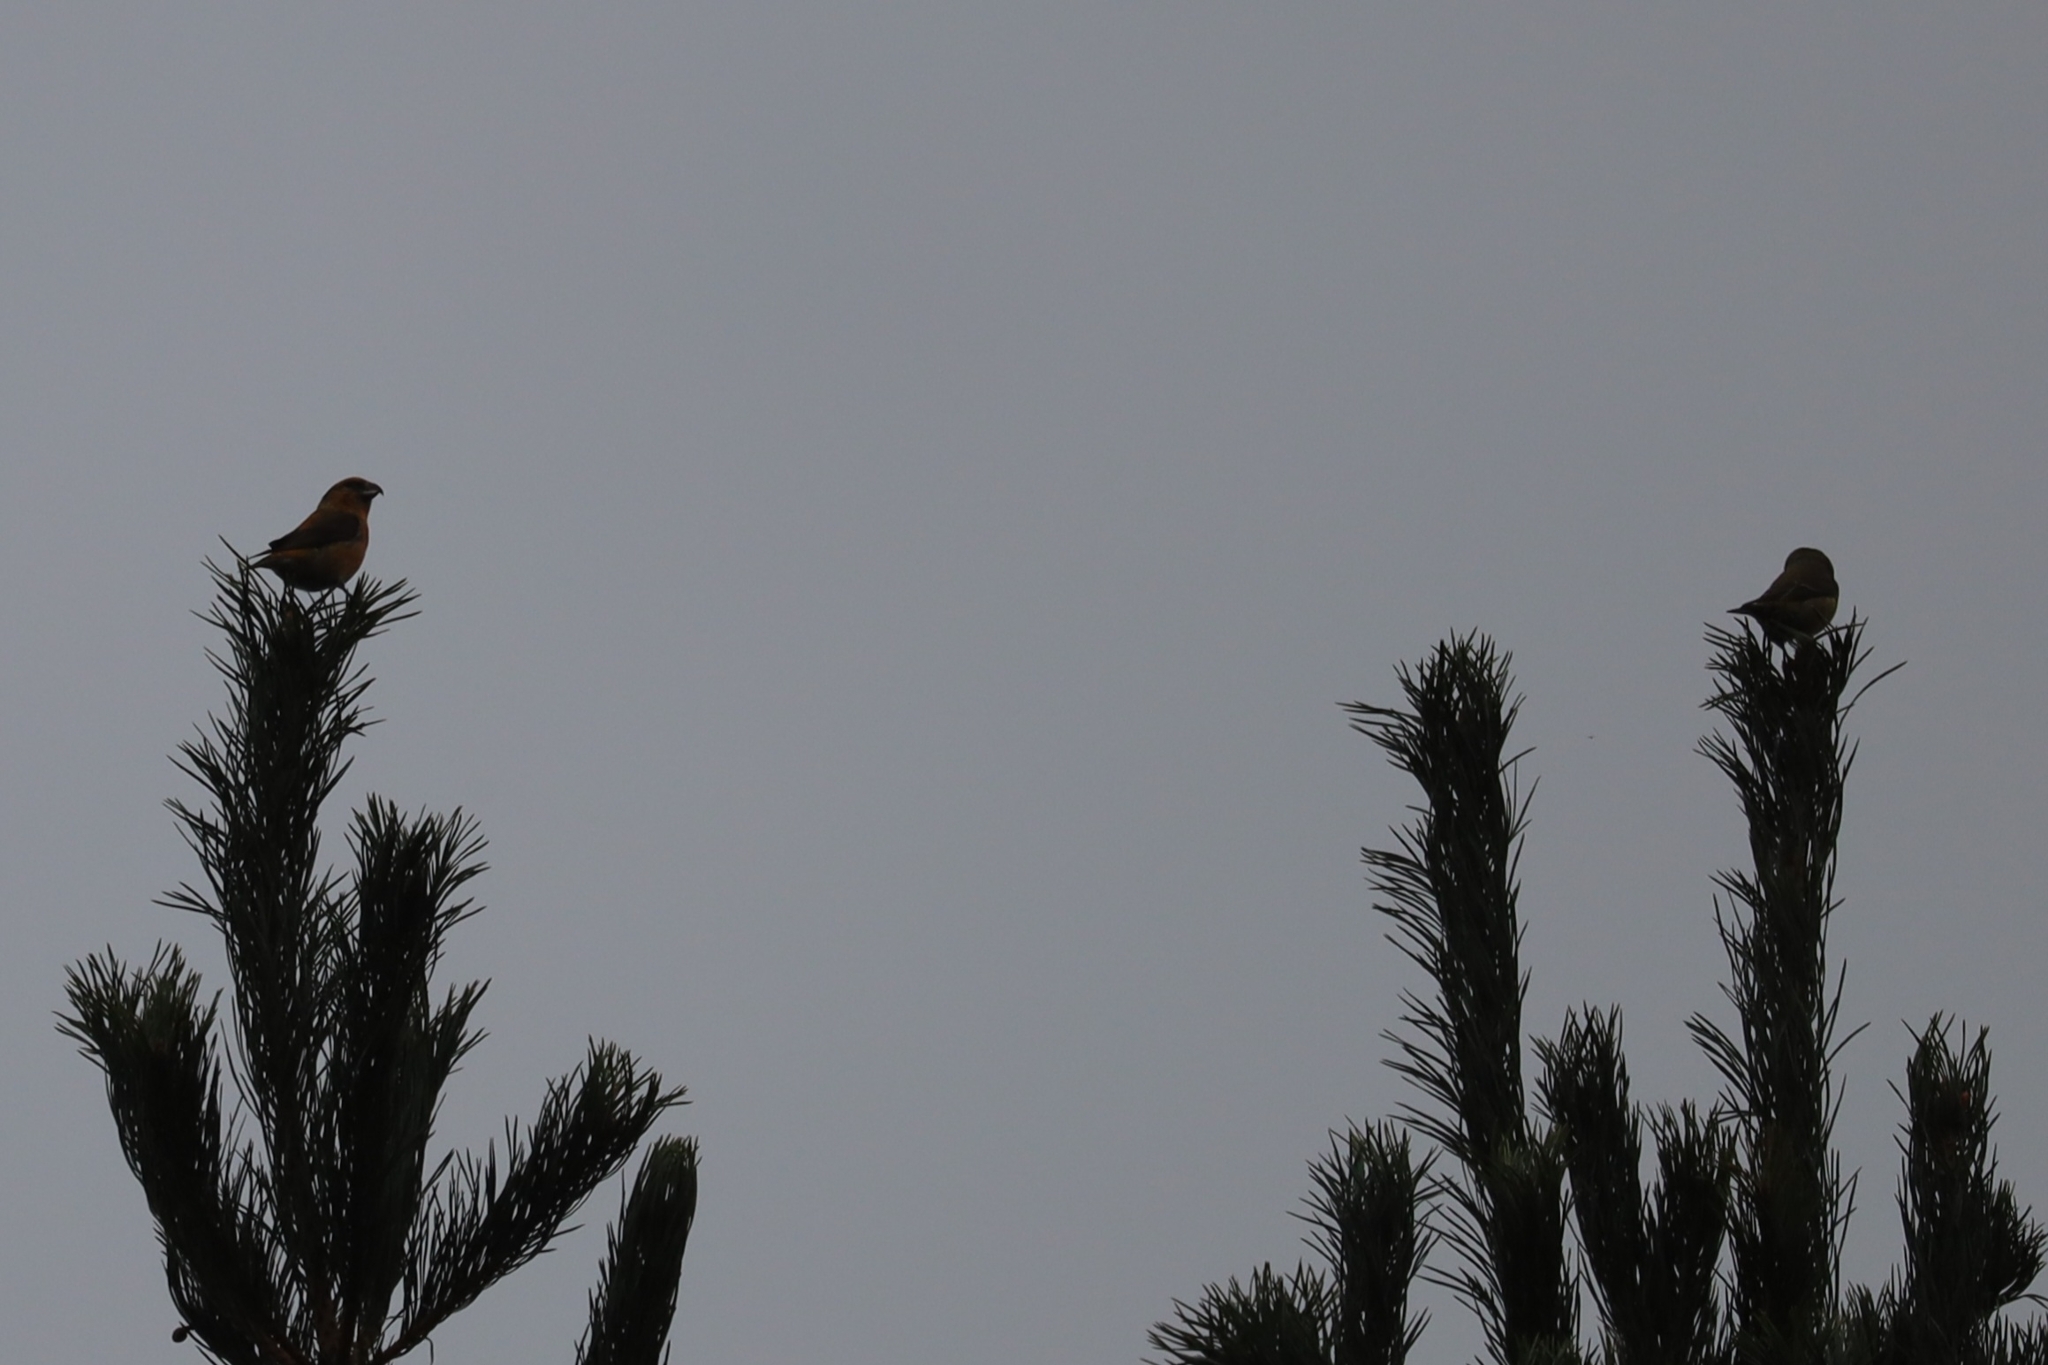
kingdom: Animalia
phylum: Chordata
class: Aves
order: Passeriformes
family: Fringillidae
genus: Loxia
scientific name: Loxia curvirostra
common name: Red crossbill
